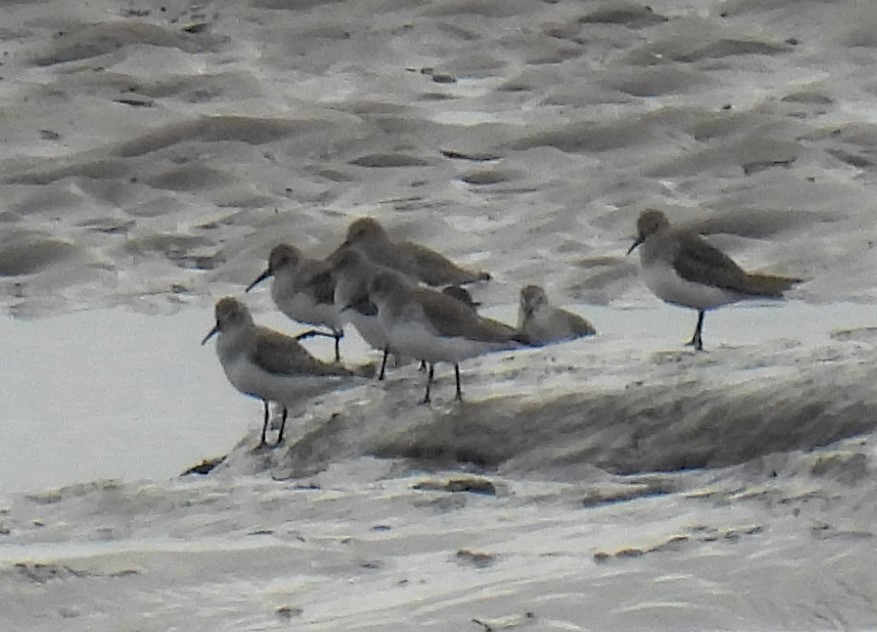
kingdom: Animalia
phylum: Chordata
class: Aves
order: Charadriiformes
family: Scolopacidae
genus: Calidris
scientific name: Calidris alpina
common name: Dunlin
